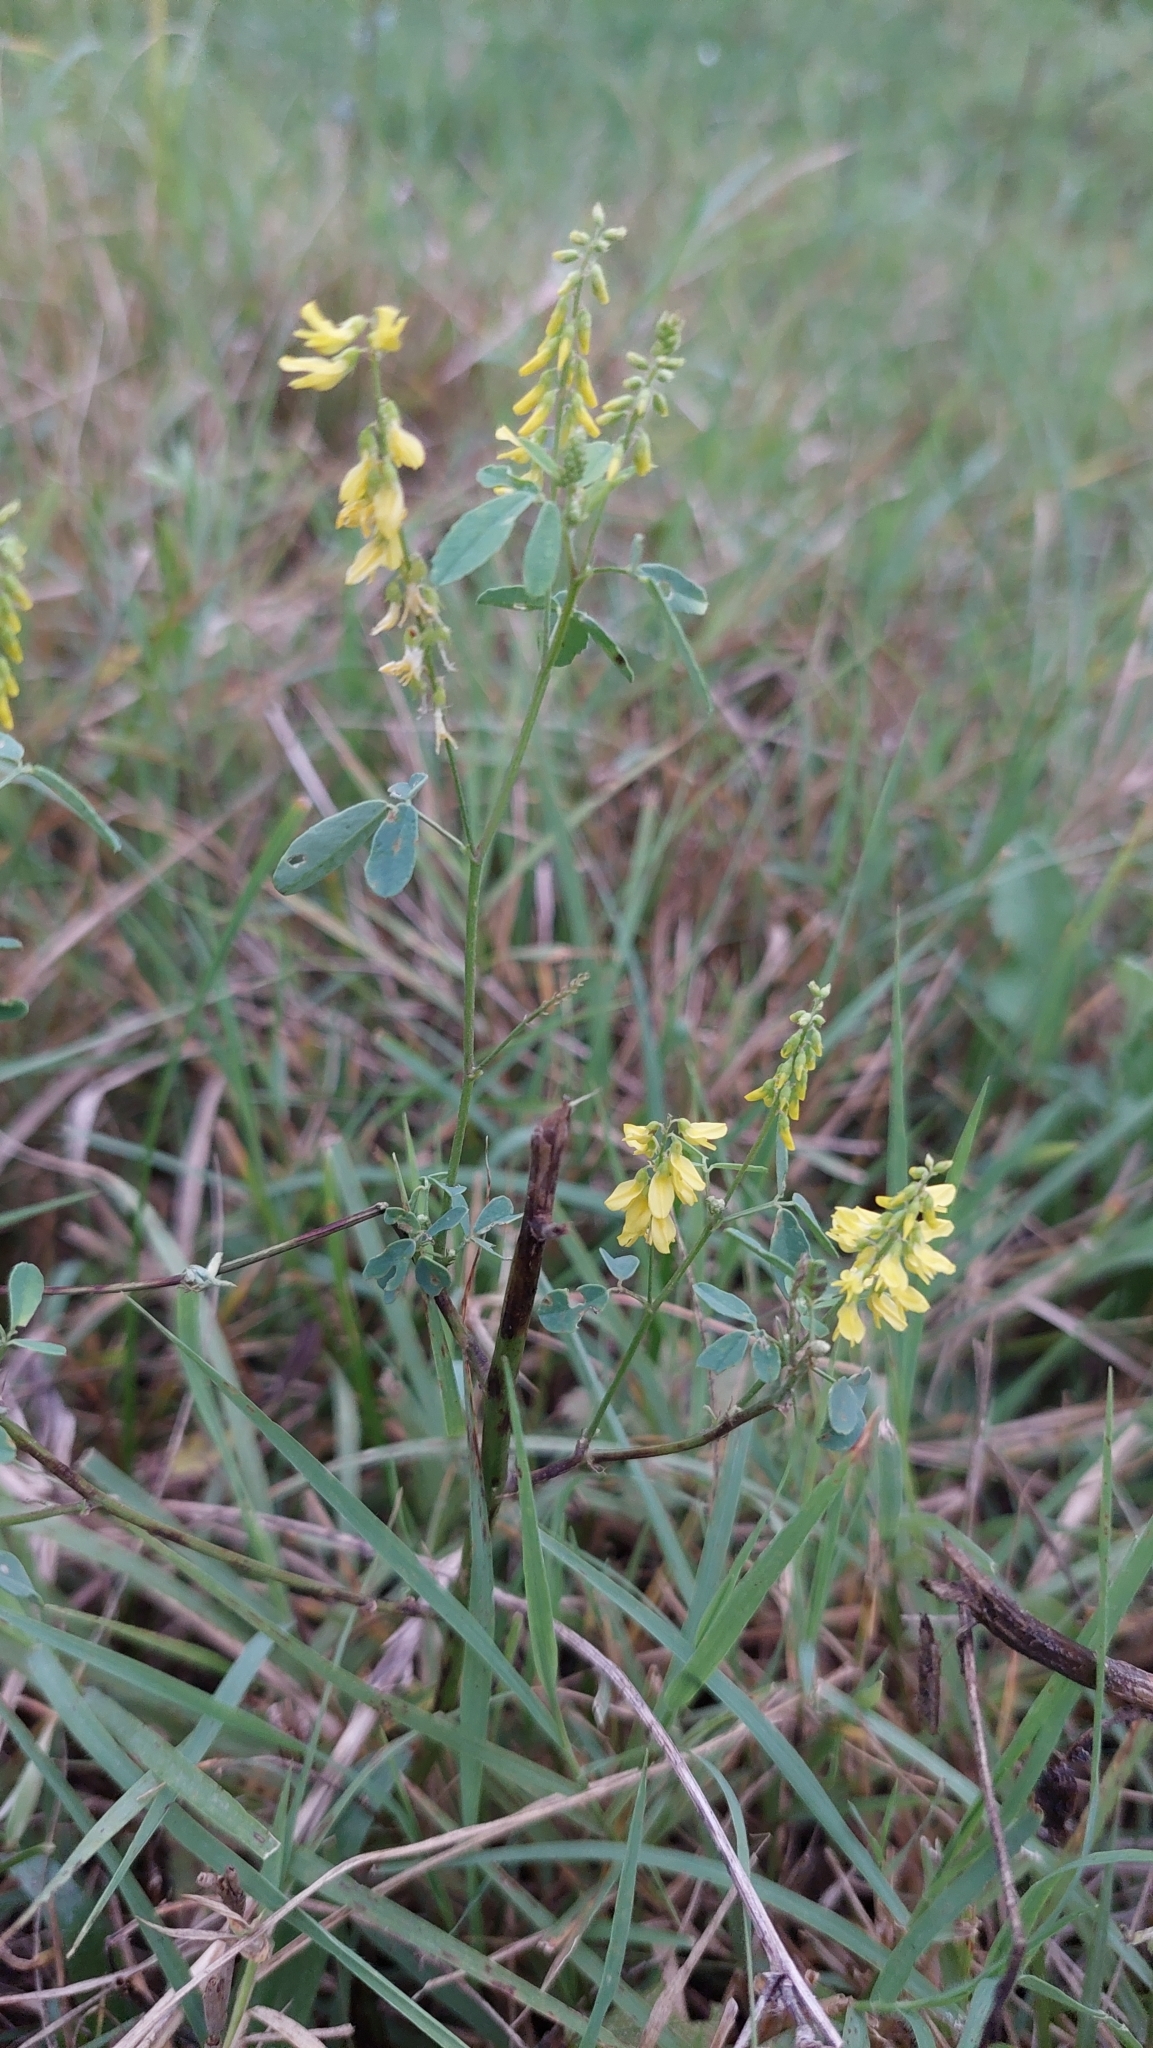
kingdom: Plantae
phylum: Tracheophyta
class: Magnoliopsida
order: Fabales
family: Fabaceae
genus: Melilotus
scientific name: Melilotus officinalis
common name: Sweetclover
